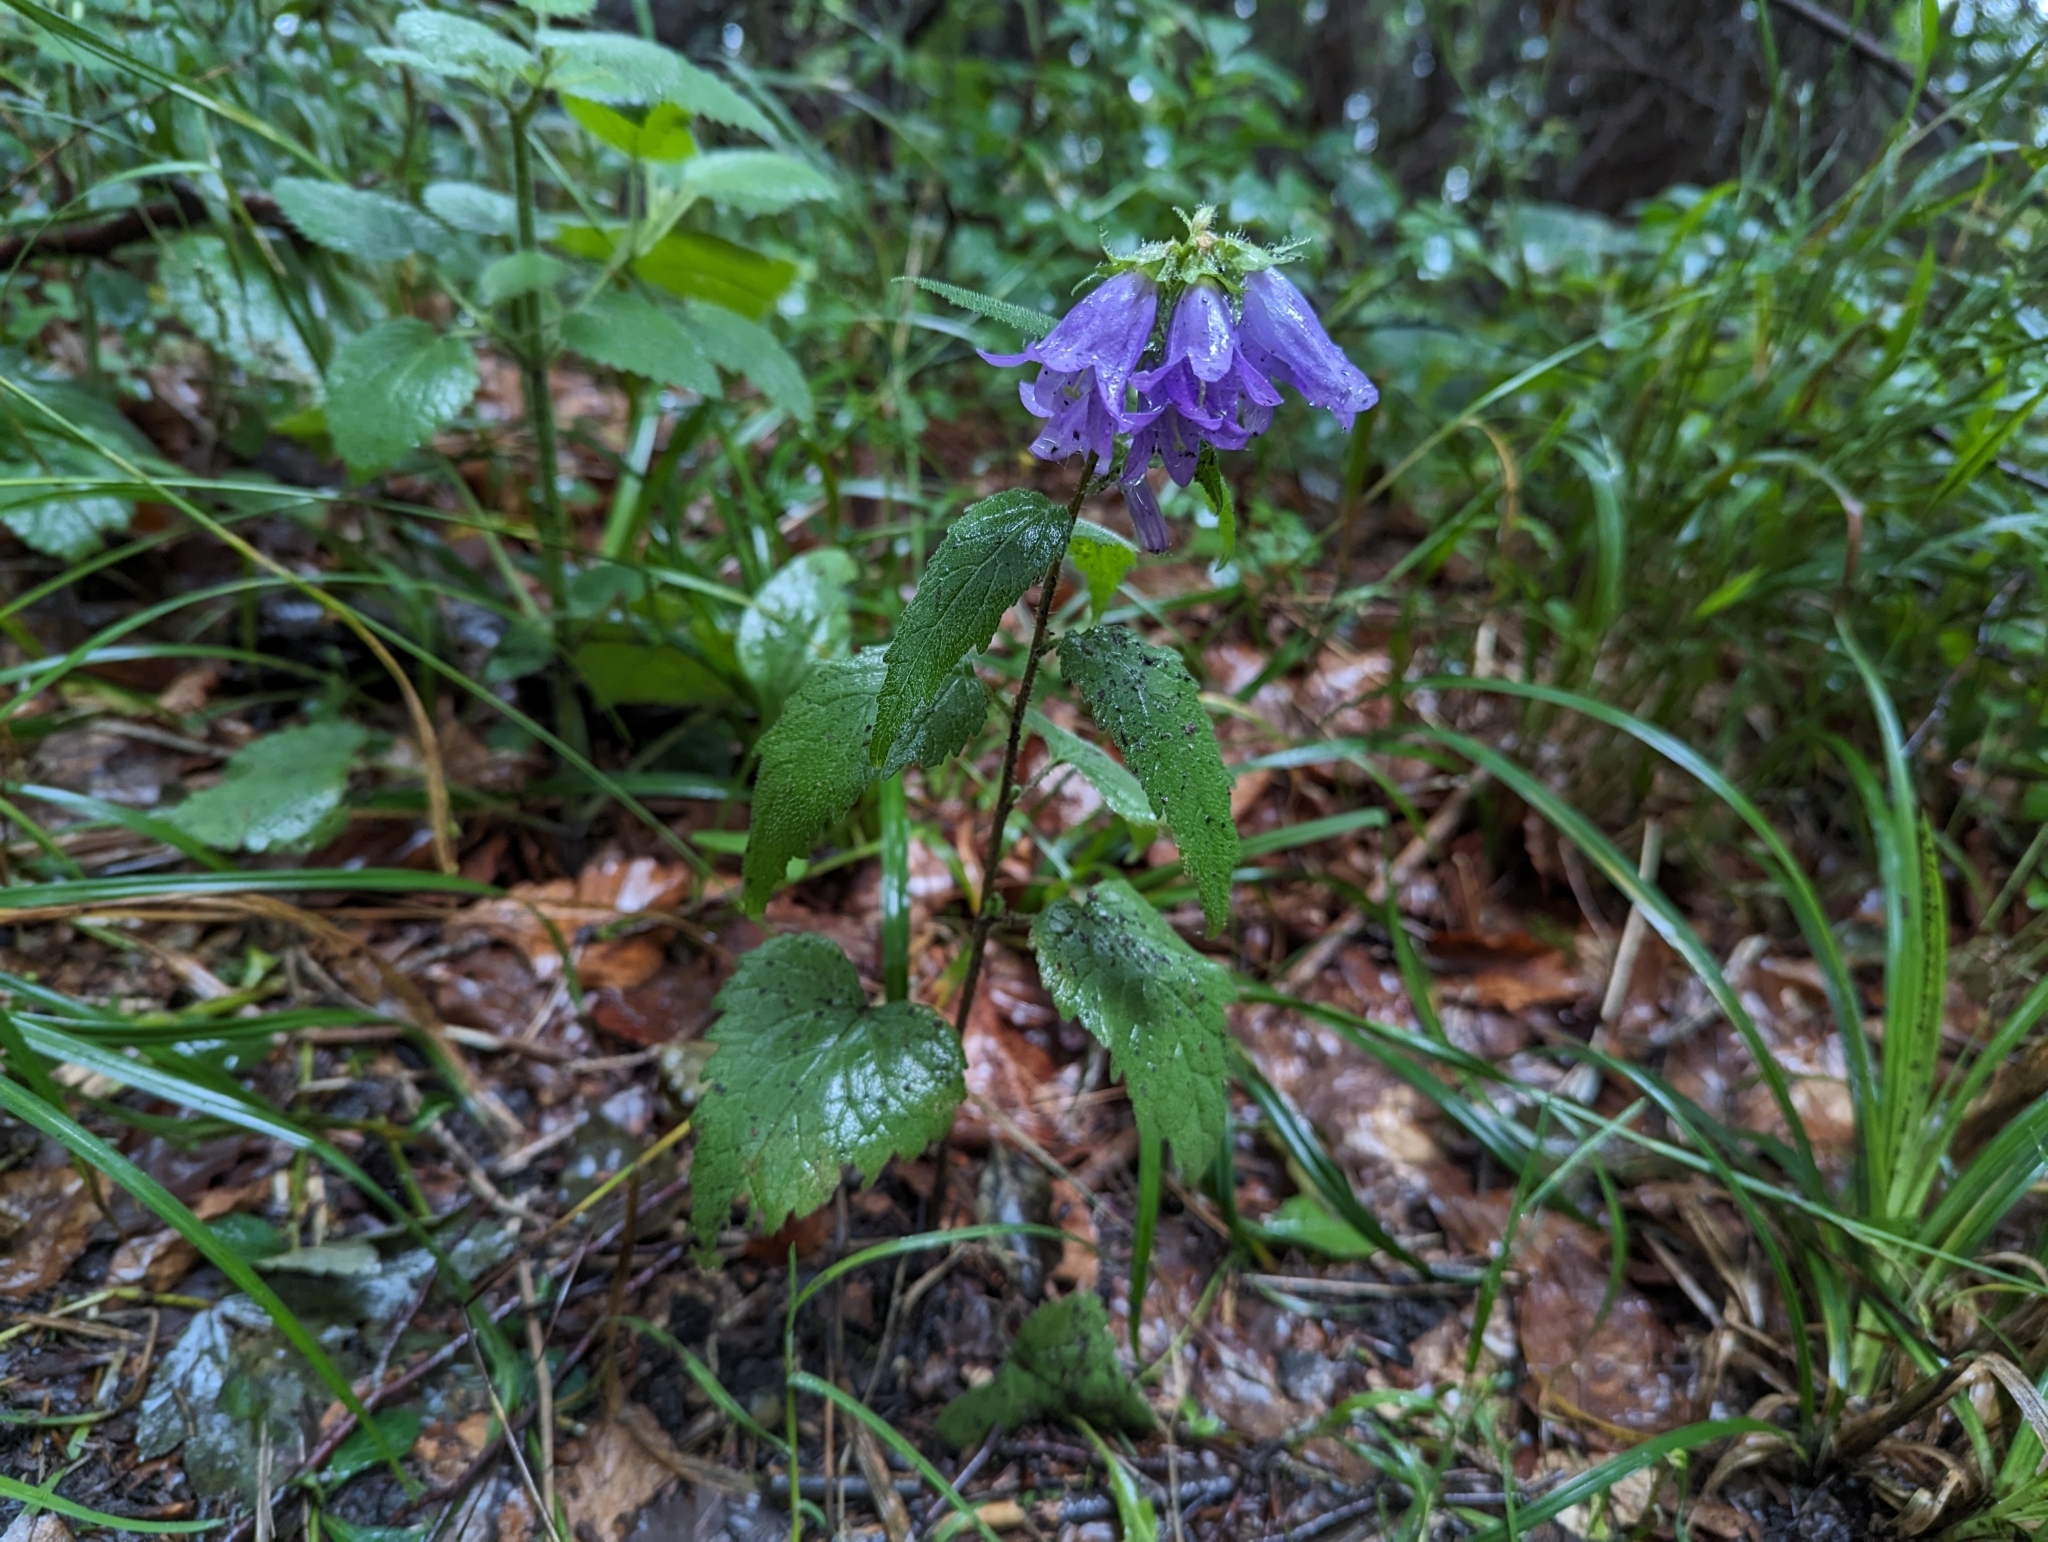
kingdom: Plantae
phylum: Tracheophyta
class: Magnoliopsida
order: Asterales
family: Campanulaceae
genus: Campanula
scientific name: Campanula trachelium
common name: Nettle-leaved bellflower
